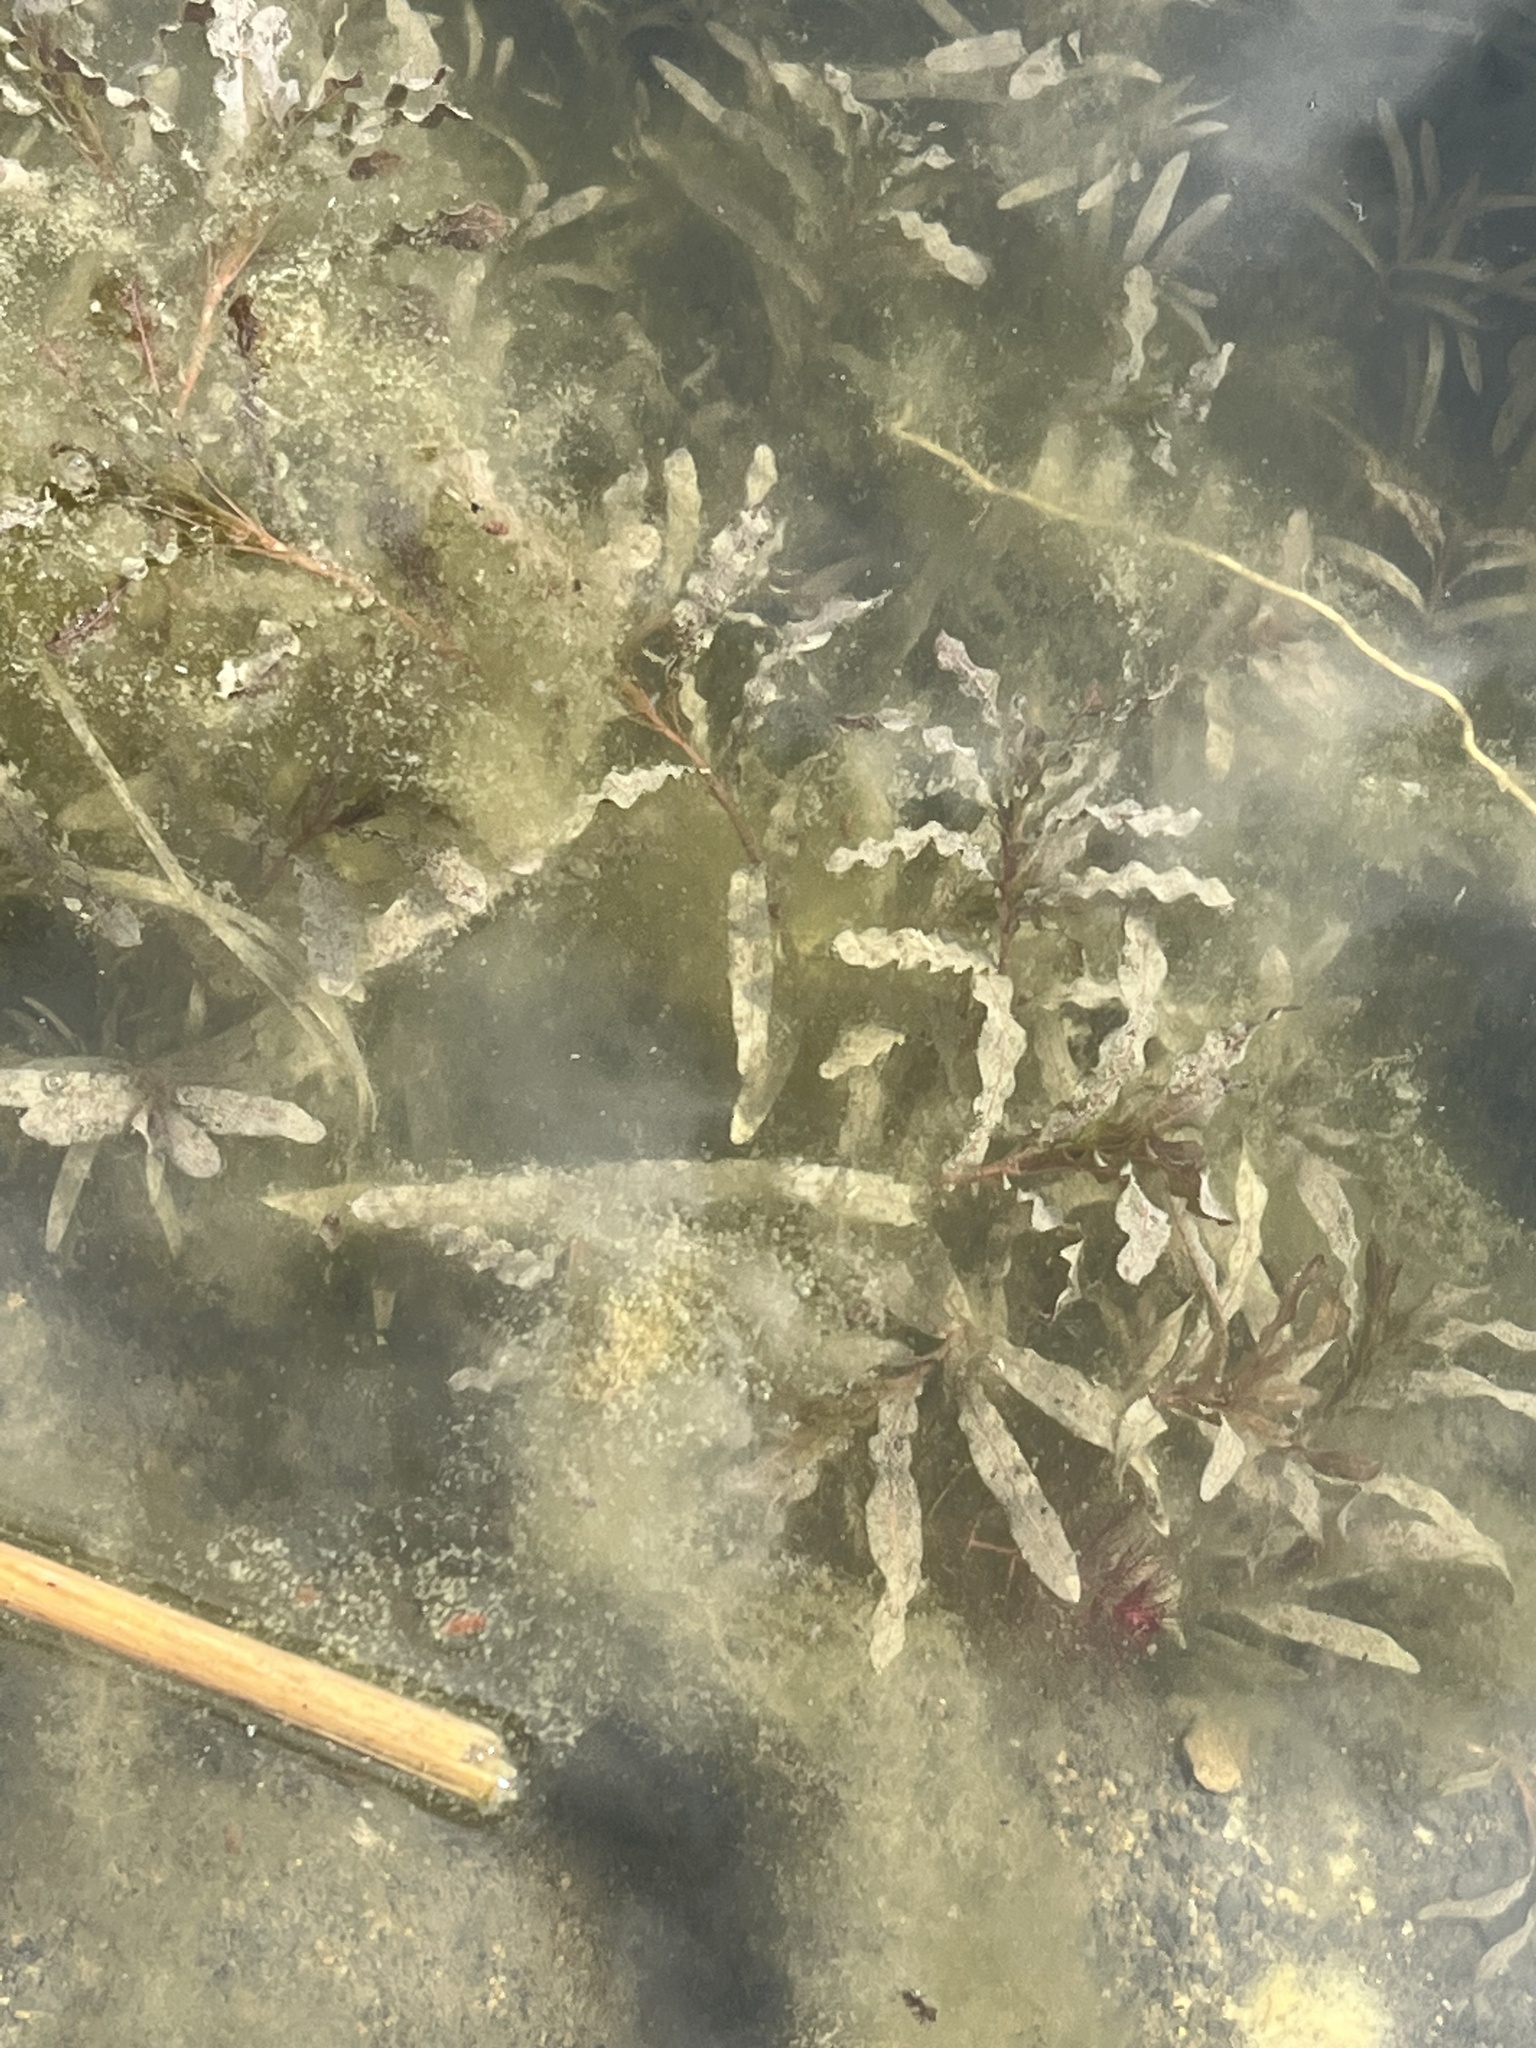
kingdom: Plantae
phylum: Tracheophyta
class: Liliopsida
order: Alismatales
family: Potamogetonaceae
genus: Potamogeton
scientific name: Potamogeton crispus
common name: Curled pondweed
